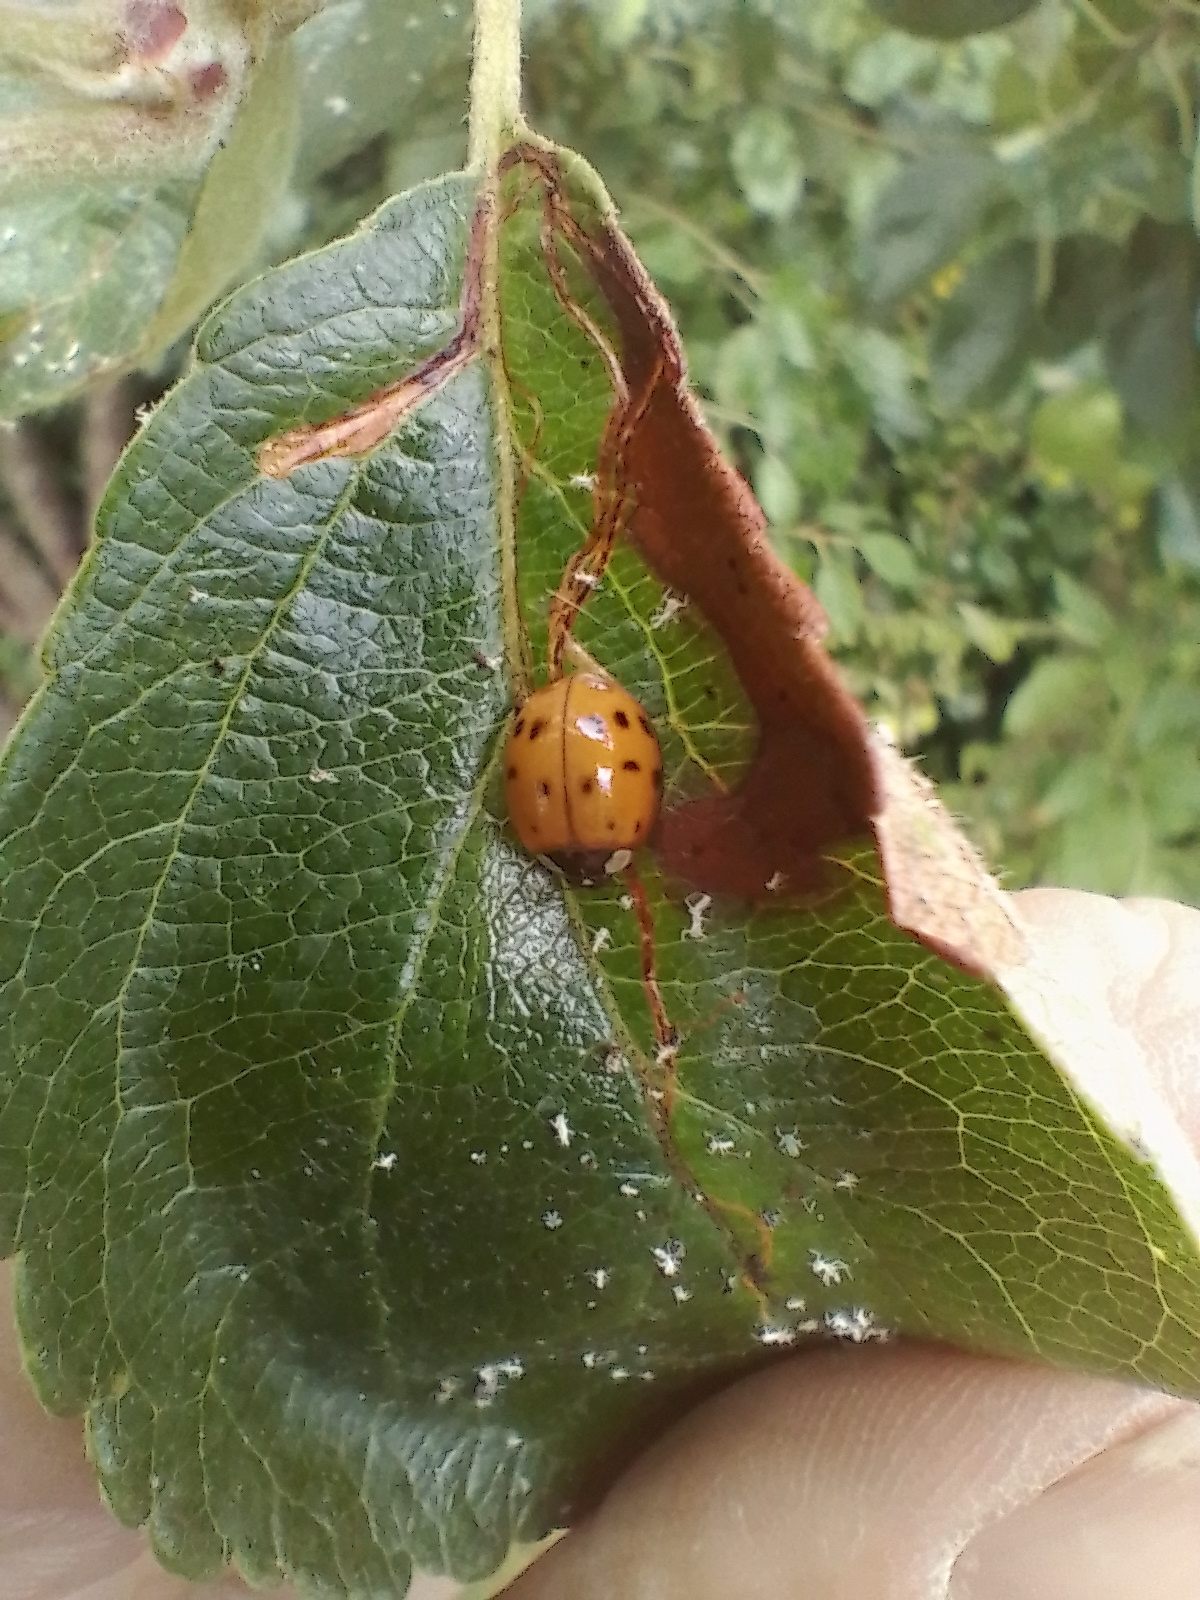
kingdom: Animalia
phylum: Arthropoda
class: Insecta
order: Coleoptera
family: Coccinellidae
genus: Harmonia
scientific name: Harmonia axyridis
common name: Harlequin ladybird
